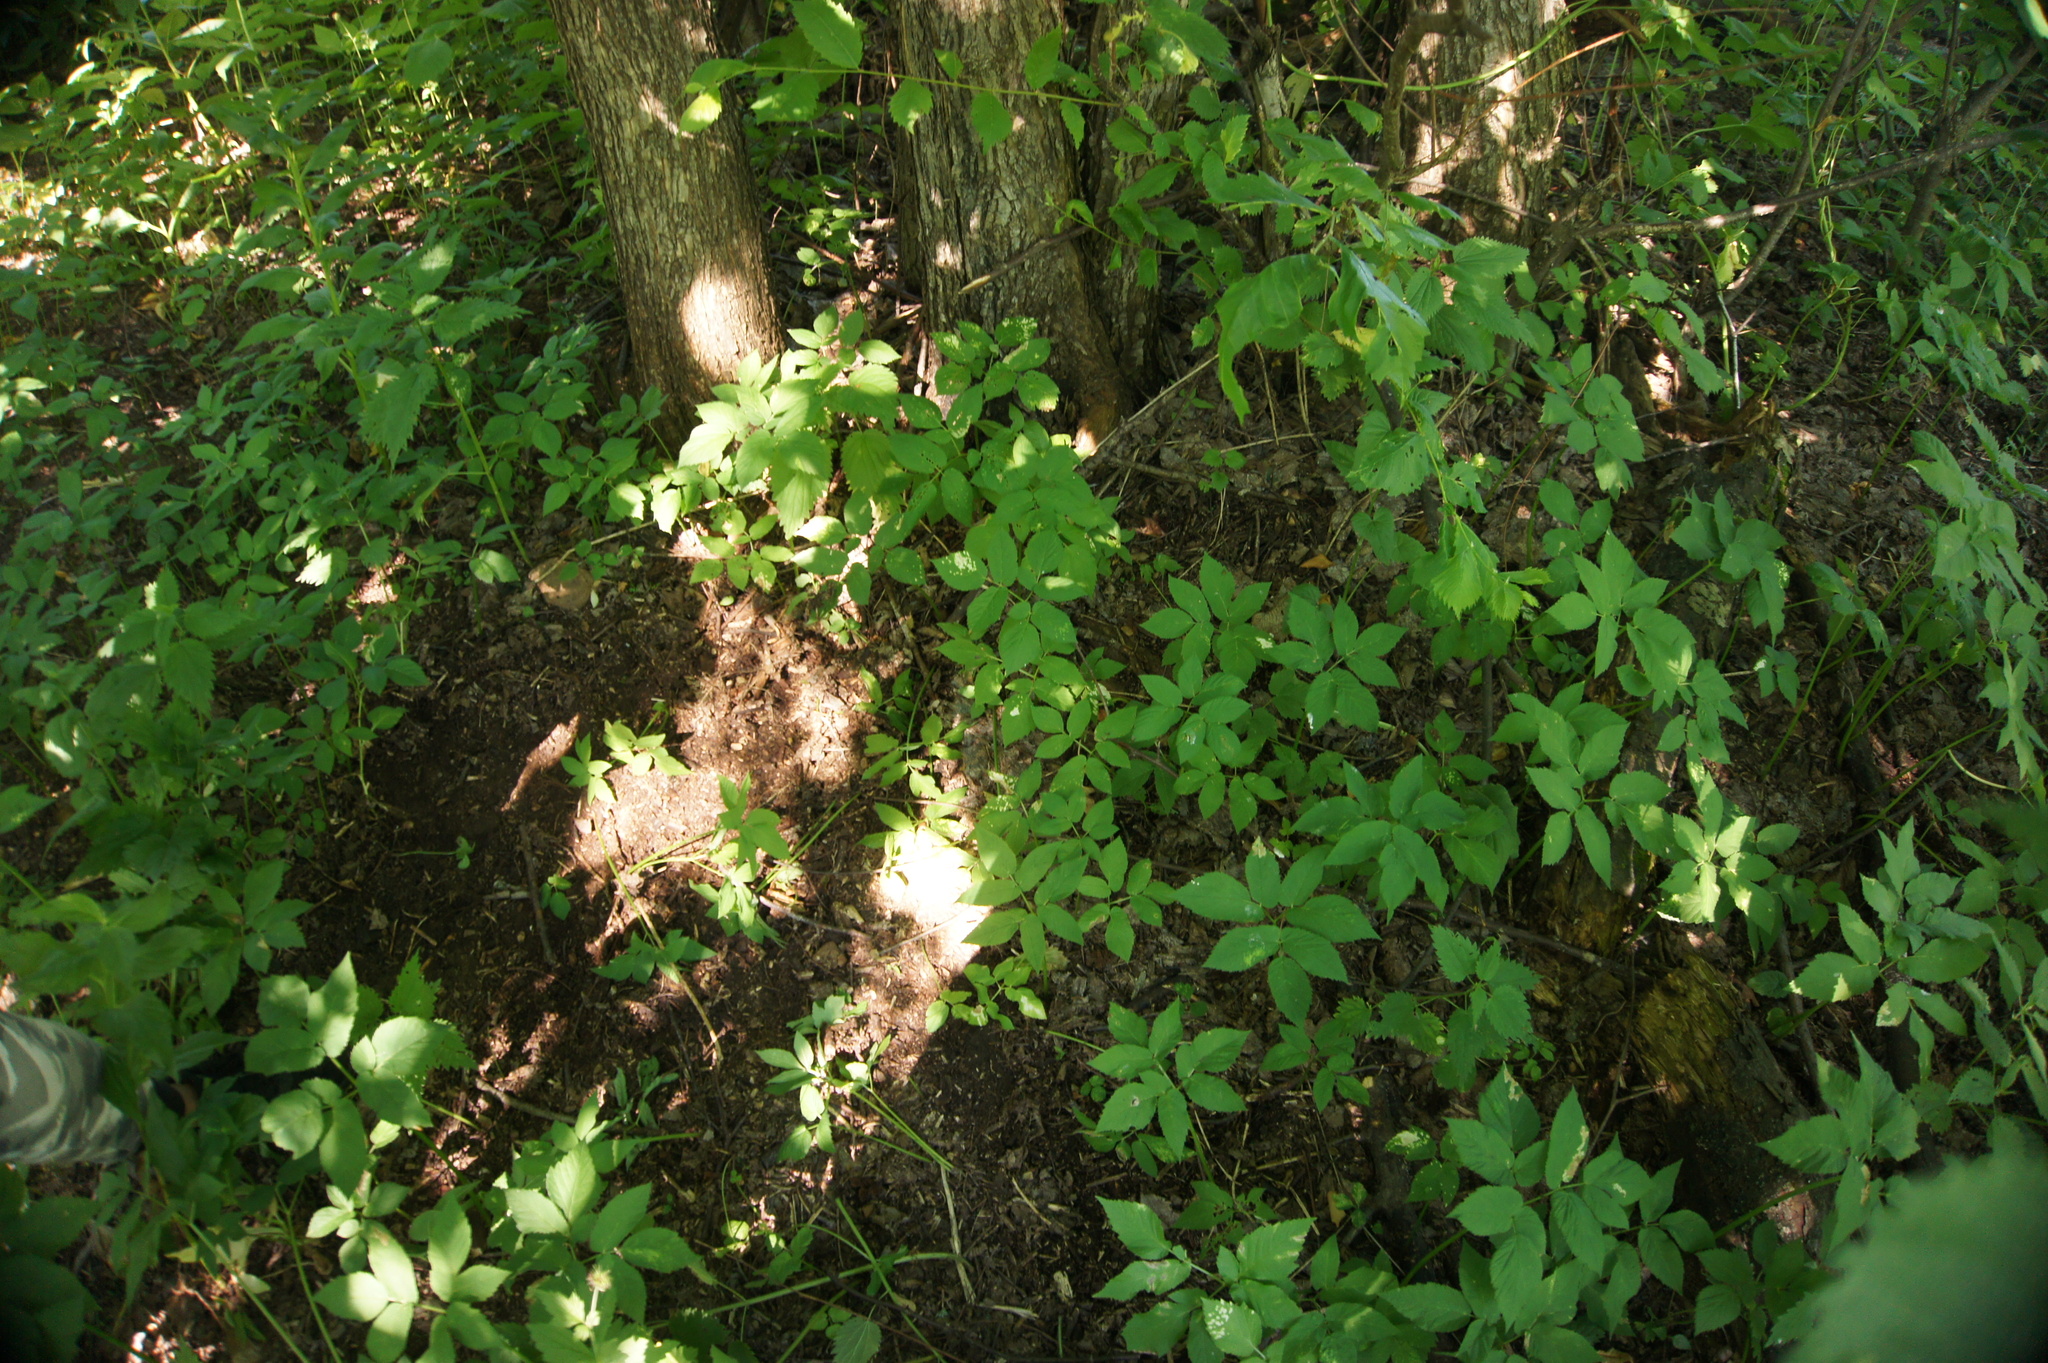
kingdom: Plantae
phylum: Tracheophyta
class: Magnoliopsida
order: Apiales
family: Apiaceae
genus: Aegopodium
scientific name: Aegopodium podagraria
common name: Ground-elder
